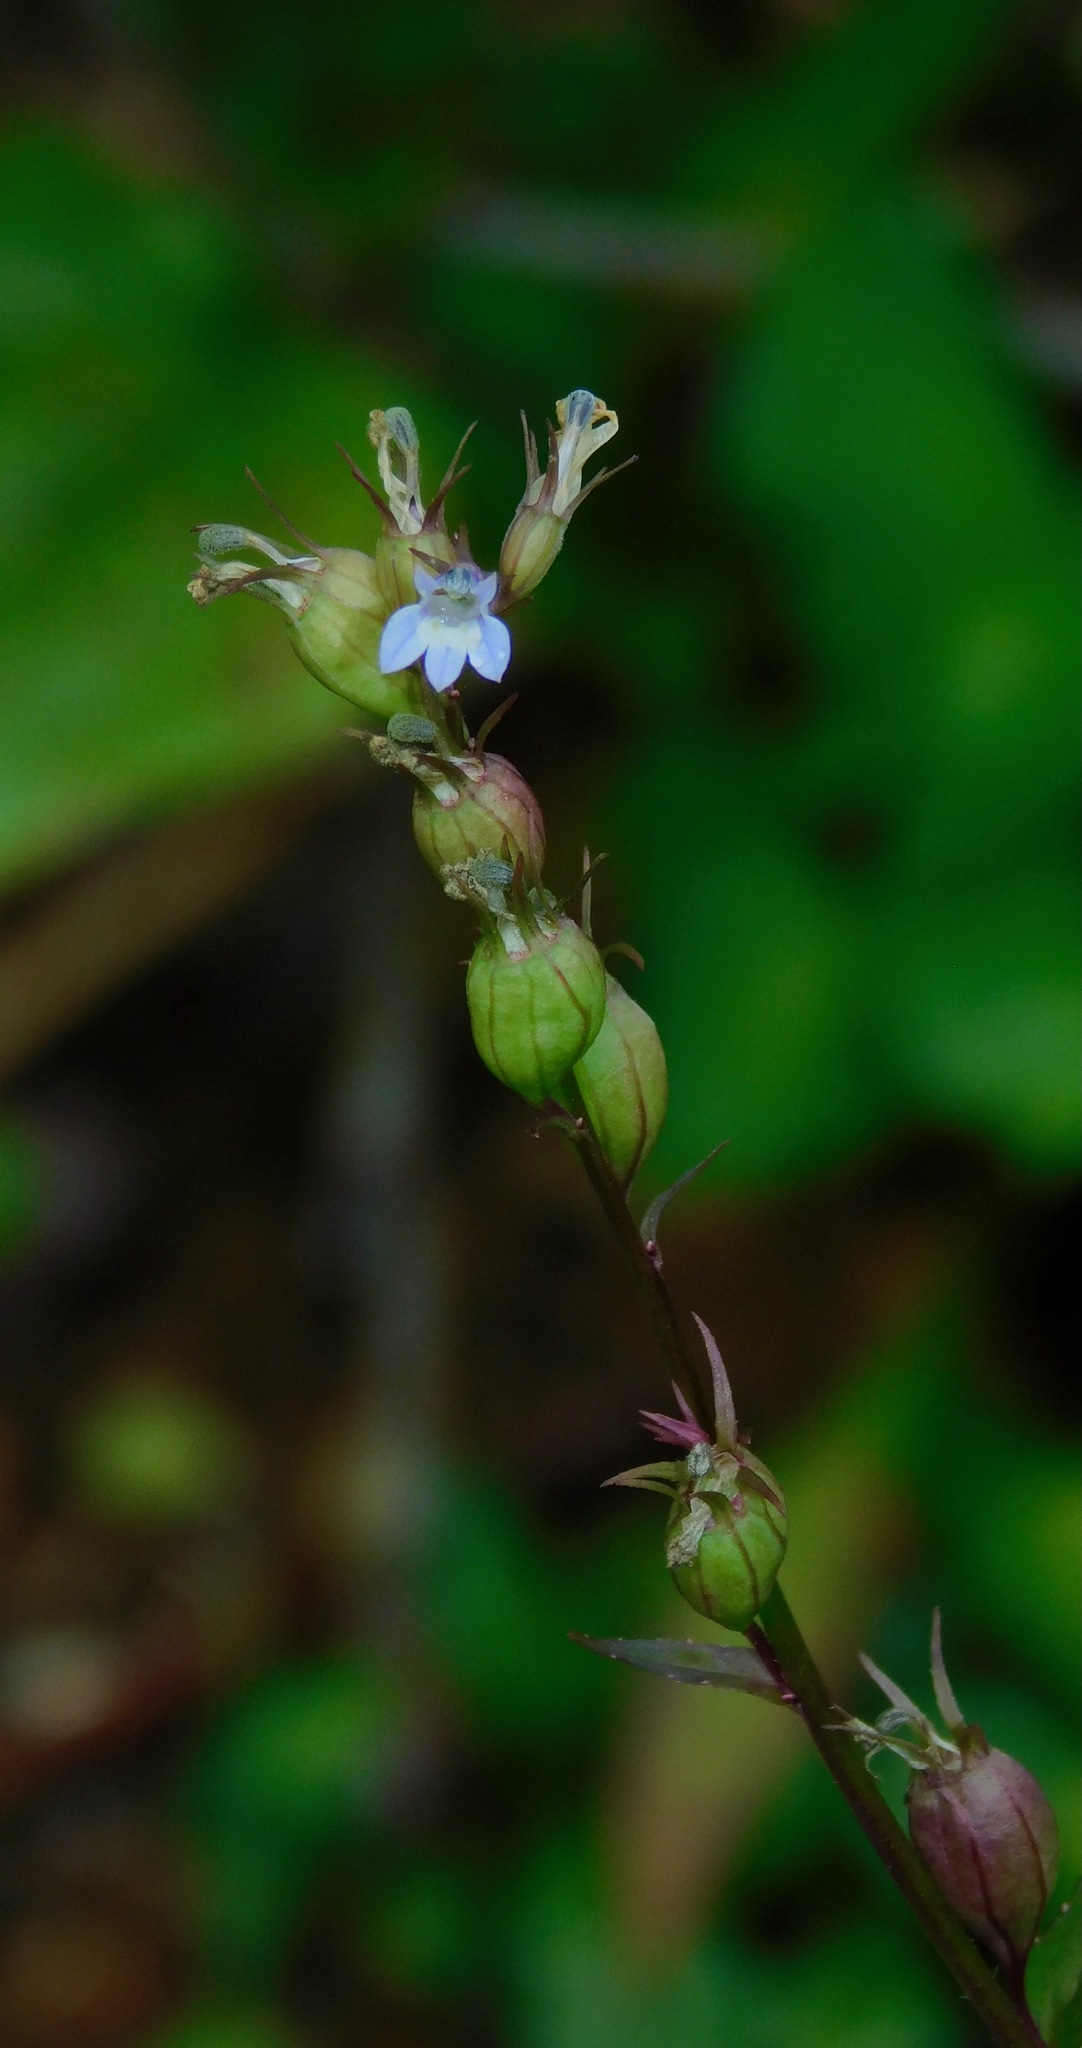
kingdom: Plantae
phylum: Tracheophyta
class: Magnoliopsida
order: Asterales
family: Campanulaceae
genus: Lobelia
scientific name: Lobelia inflata
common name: Indian tobacco
